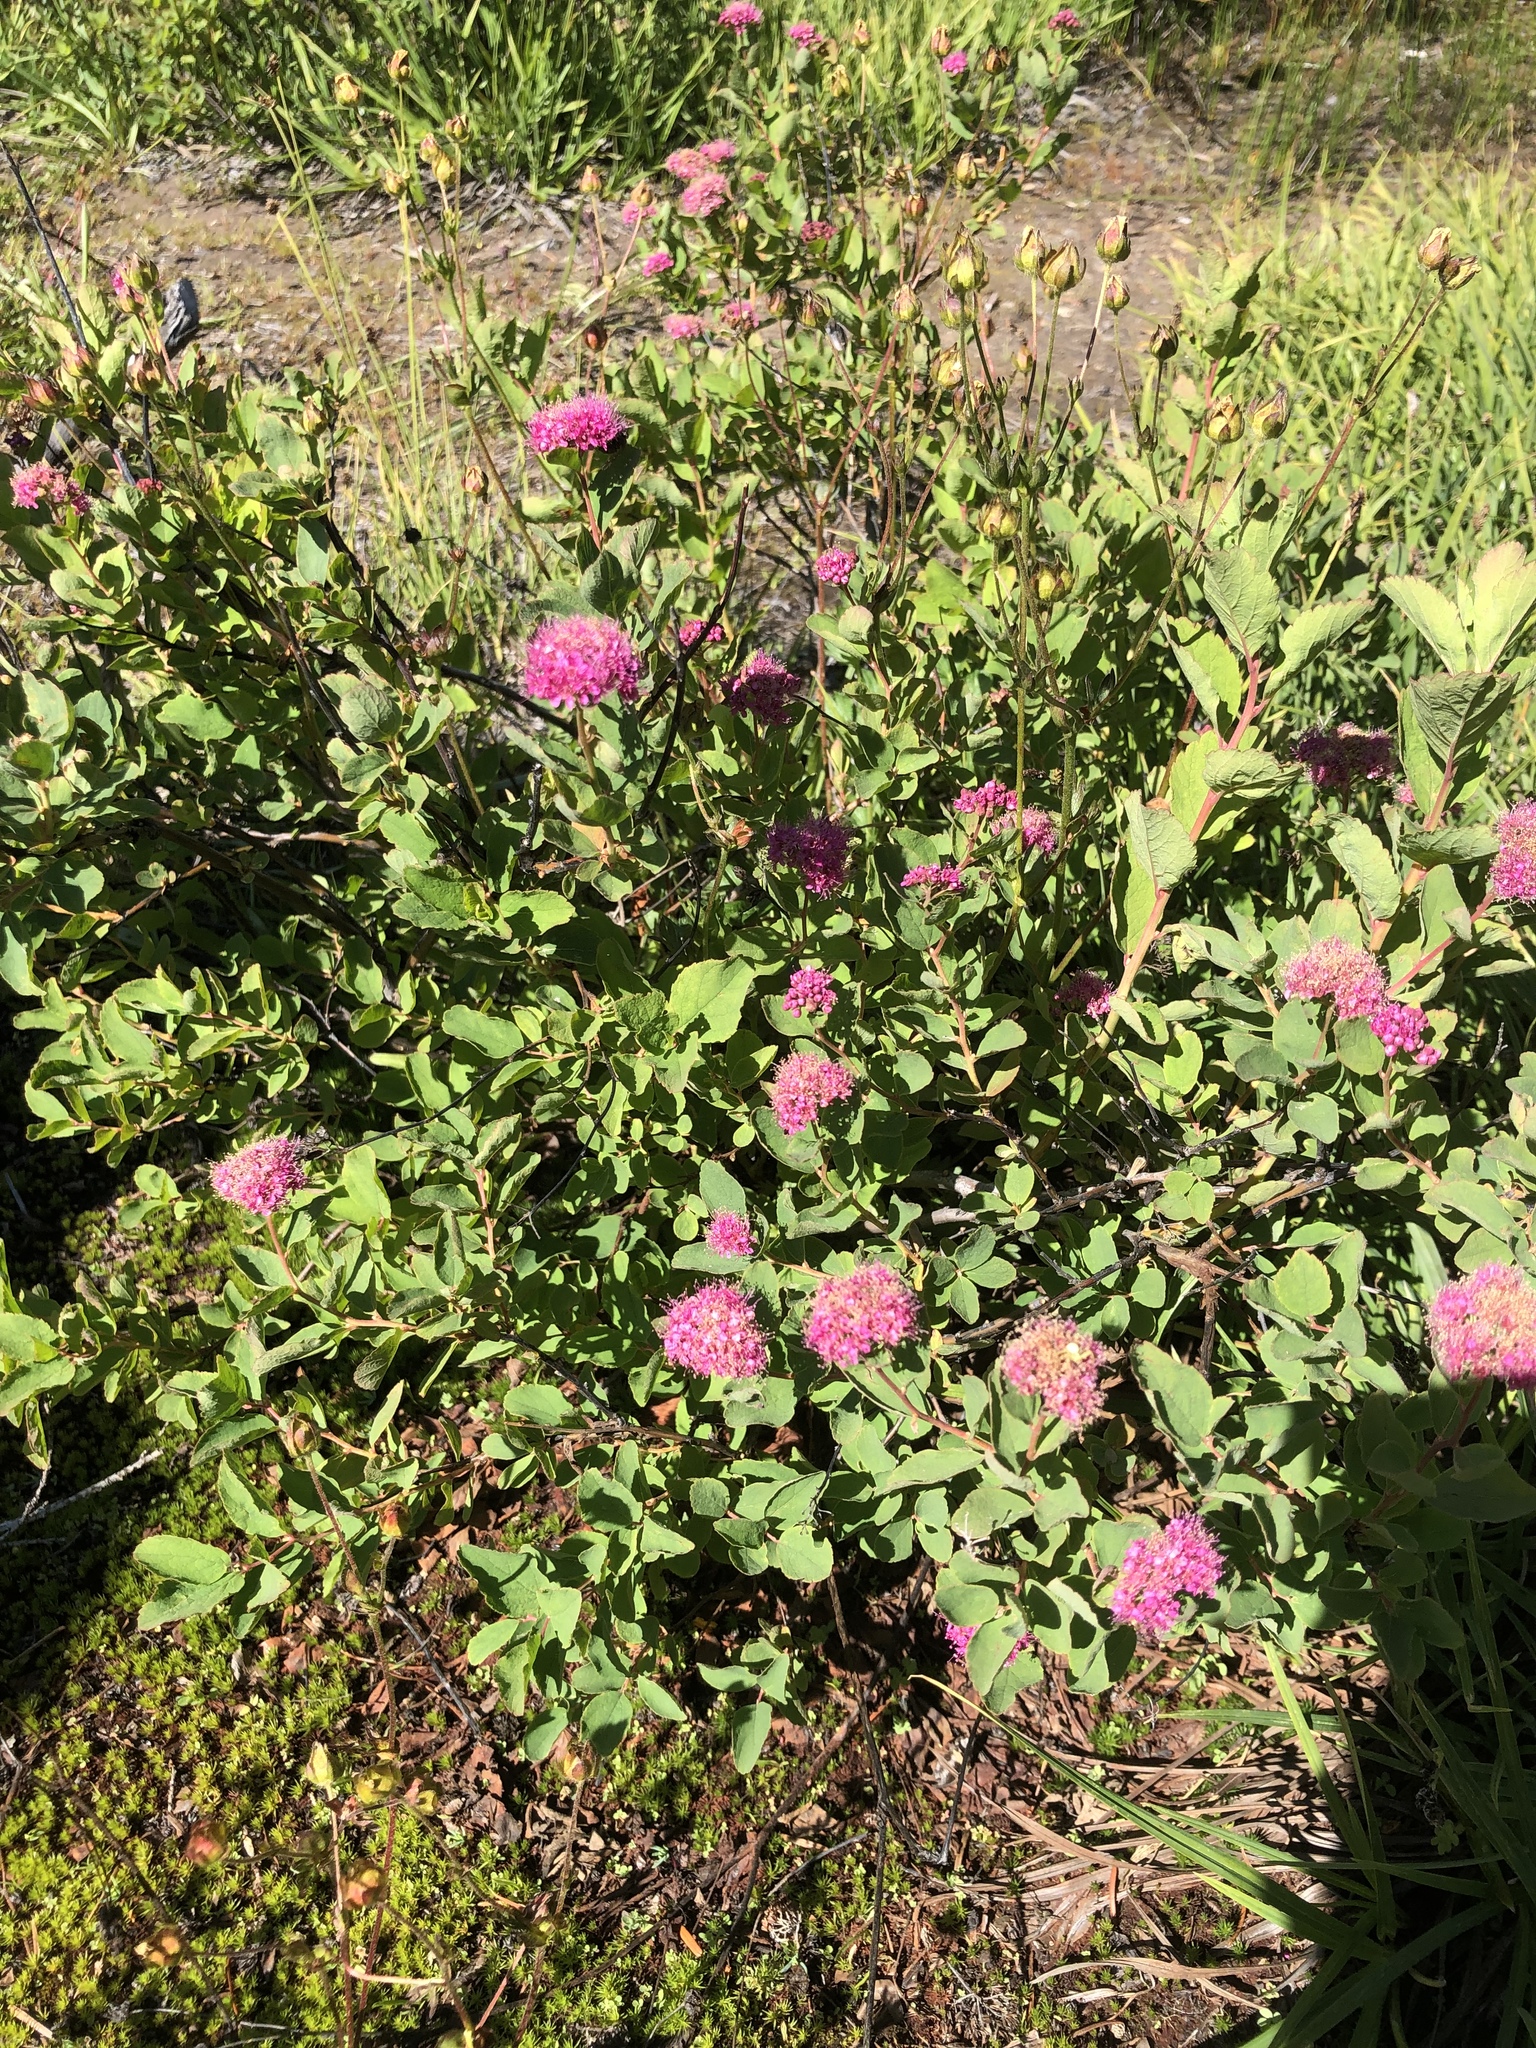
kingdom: Plantae
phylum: Tracheophyta
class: Magnoliopsida
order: Rosales
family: Rosaceae
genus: Spiraea
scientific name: Spiraea splendens
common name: Subalpine meadowsweet
